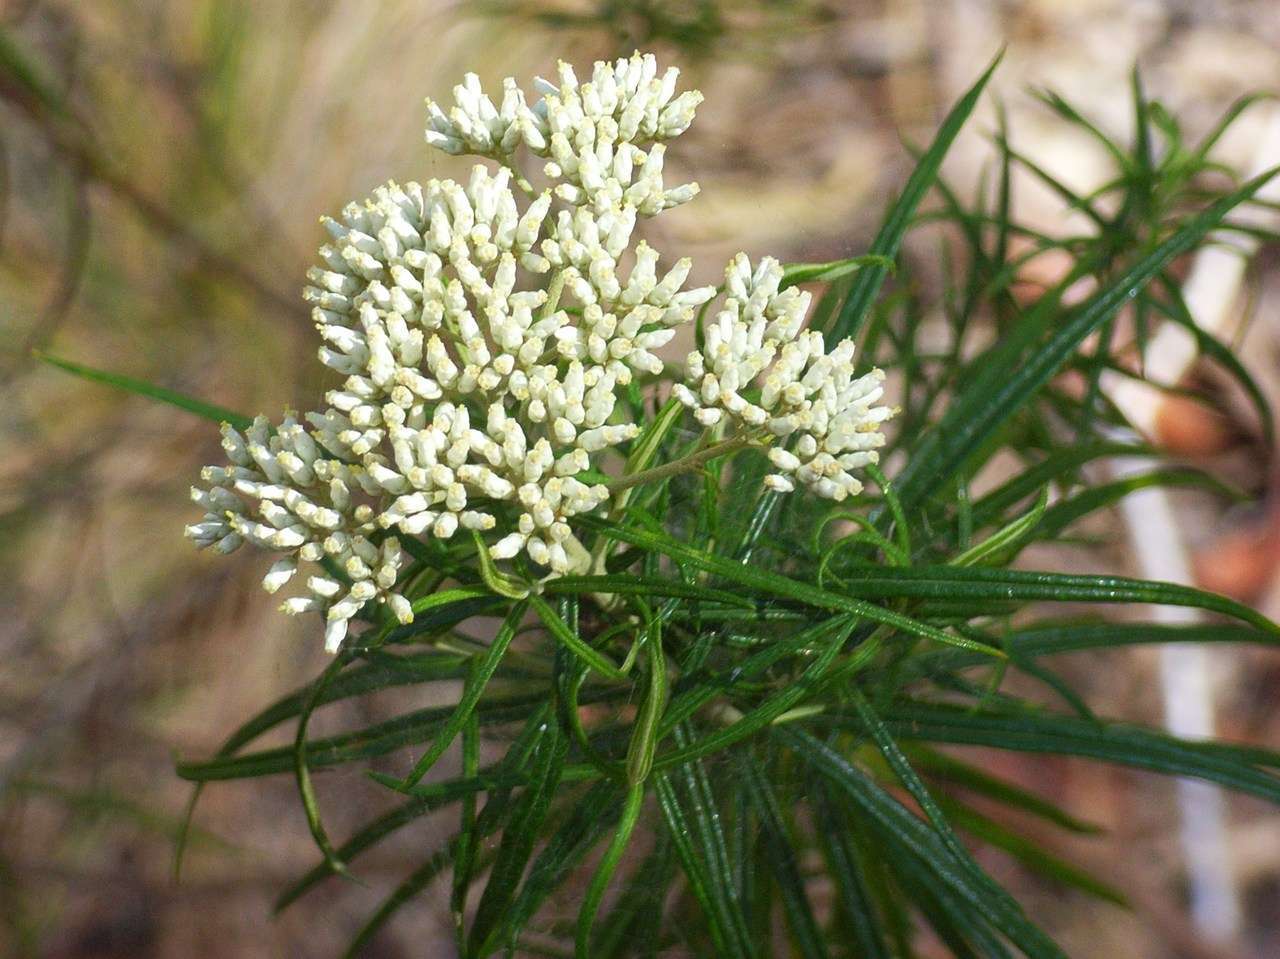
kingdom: Plantae
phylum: Tracheophyta
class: Magnoliopsida
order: Asterales
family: Asteraceae
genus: Cassinia
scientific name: Cassinia longifolia
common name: Longleaf-dogwood
